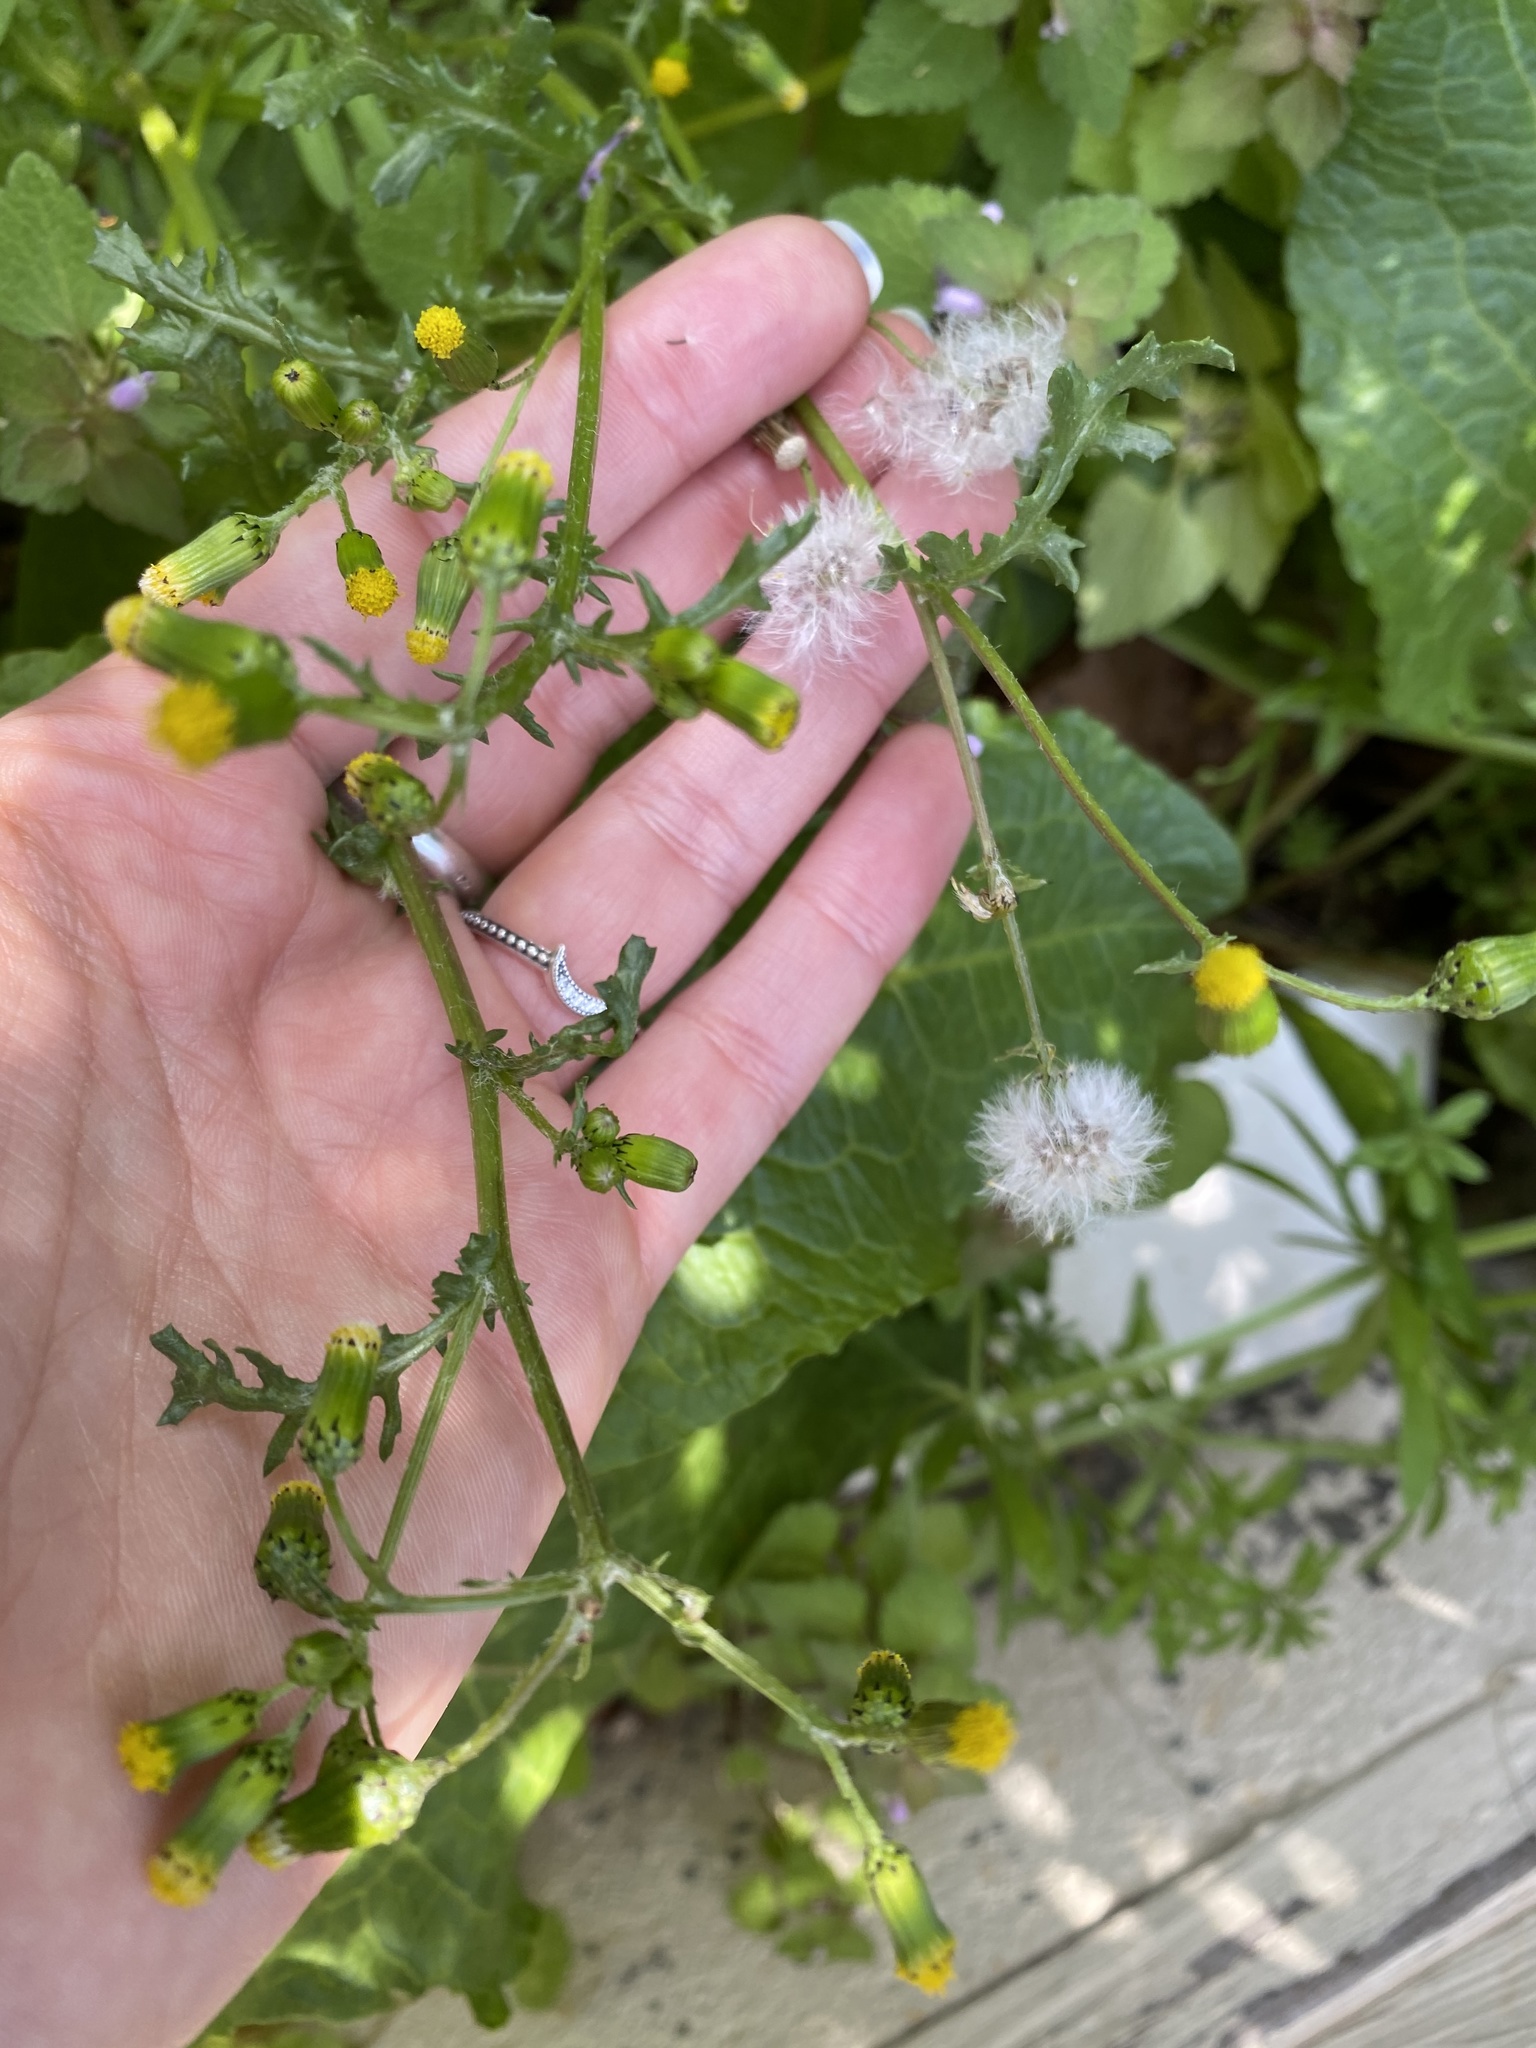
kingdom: Plantae
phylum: Tracheophyta
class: Magnoliopsida
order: Asterales
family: Asteraceae
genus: Senecio
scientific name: Senecio vulgaris
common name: Old-man-in-the-spring
